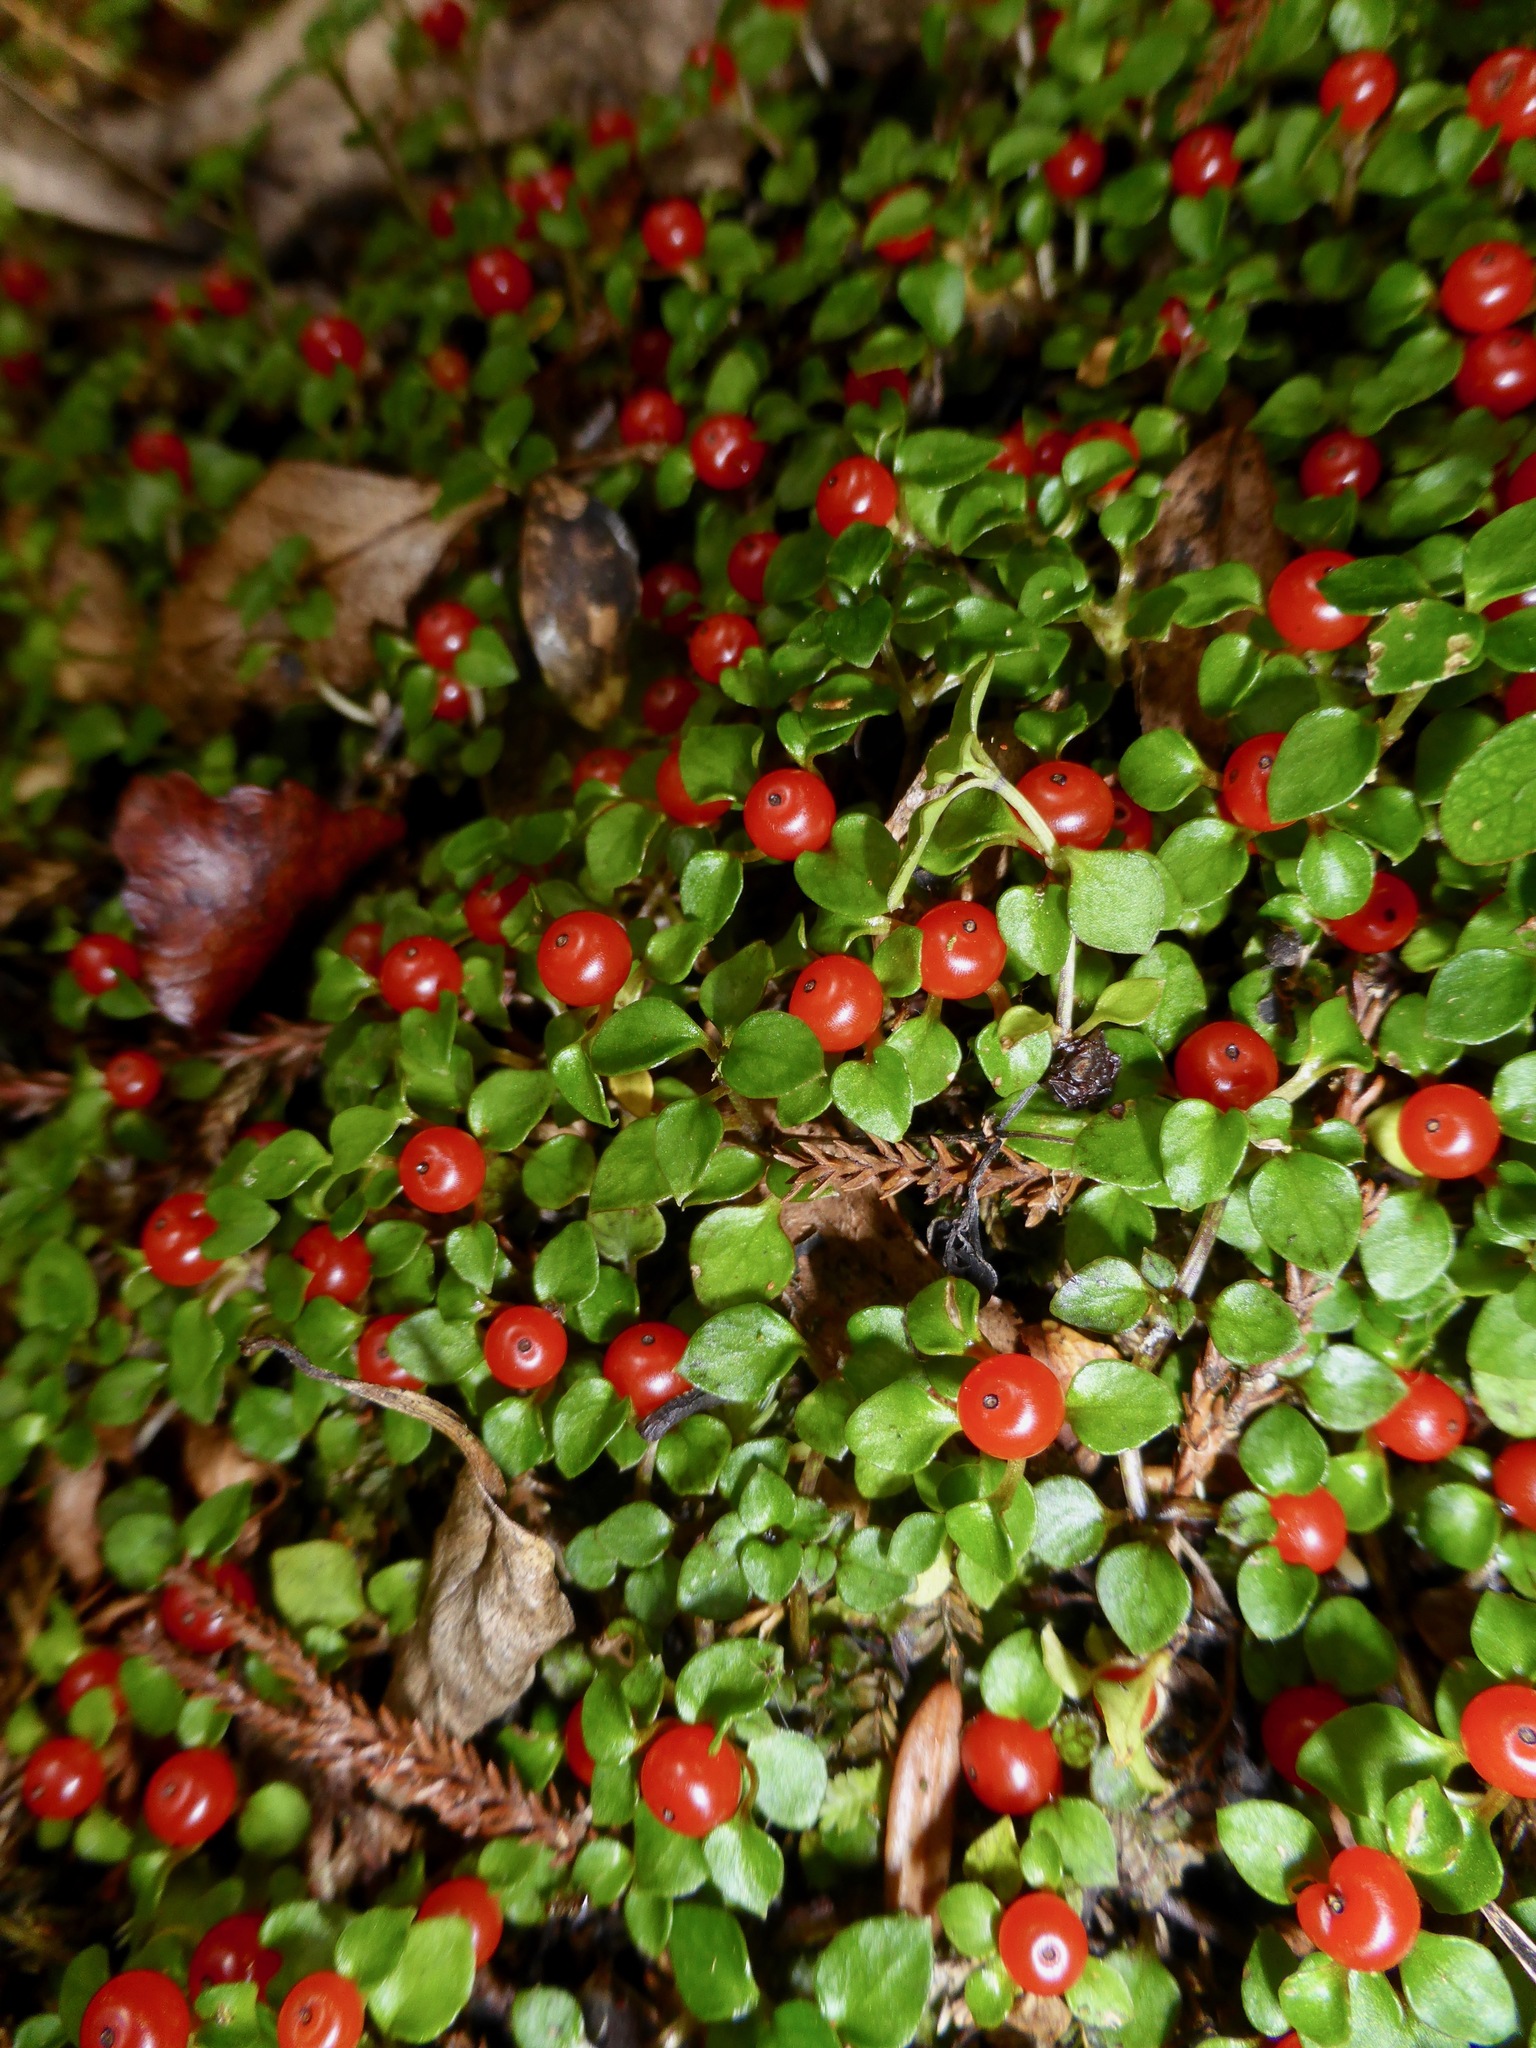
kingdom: Plantae
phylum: Tracheophyta
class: Magnoliopsida
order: Gentianales
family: Rubiaceae
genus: Nertera
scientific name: Nertera granadensis
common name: Beadplant
